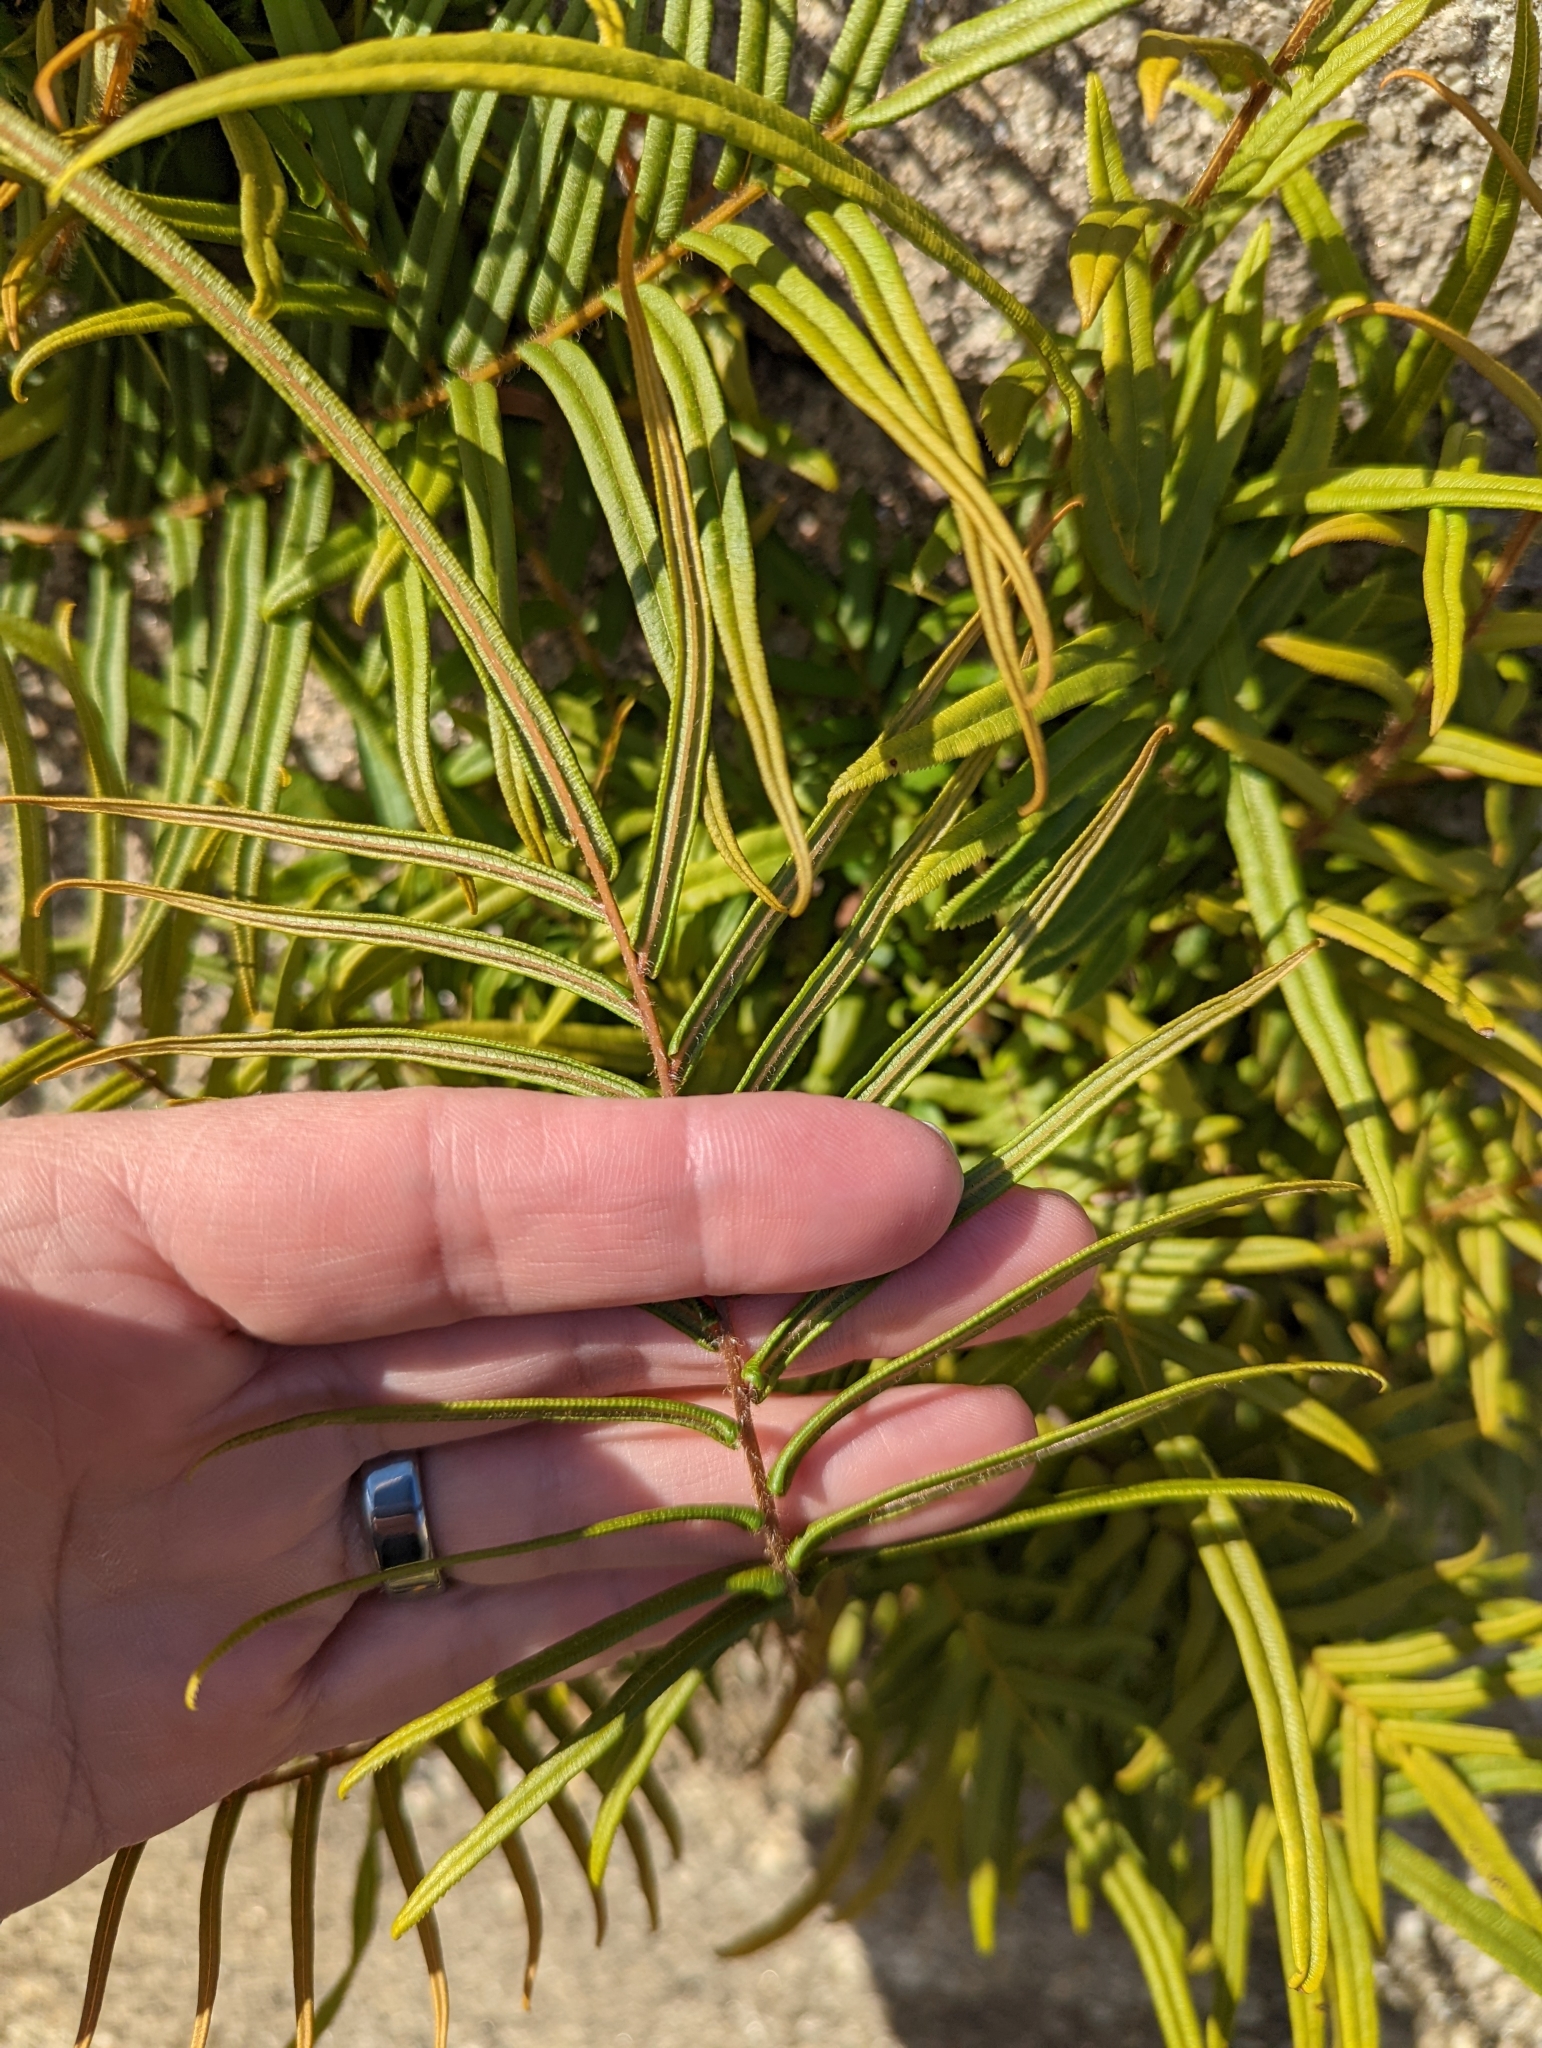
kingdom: Plantae
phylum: Tracheophyta
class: Polypodiopsida
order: Polypodiales
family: Pteridaceae
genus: Pteris
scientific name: Pteris vittata
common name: Ladder brake
